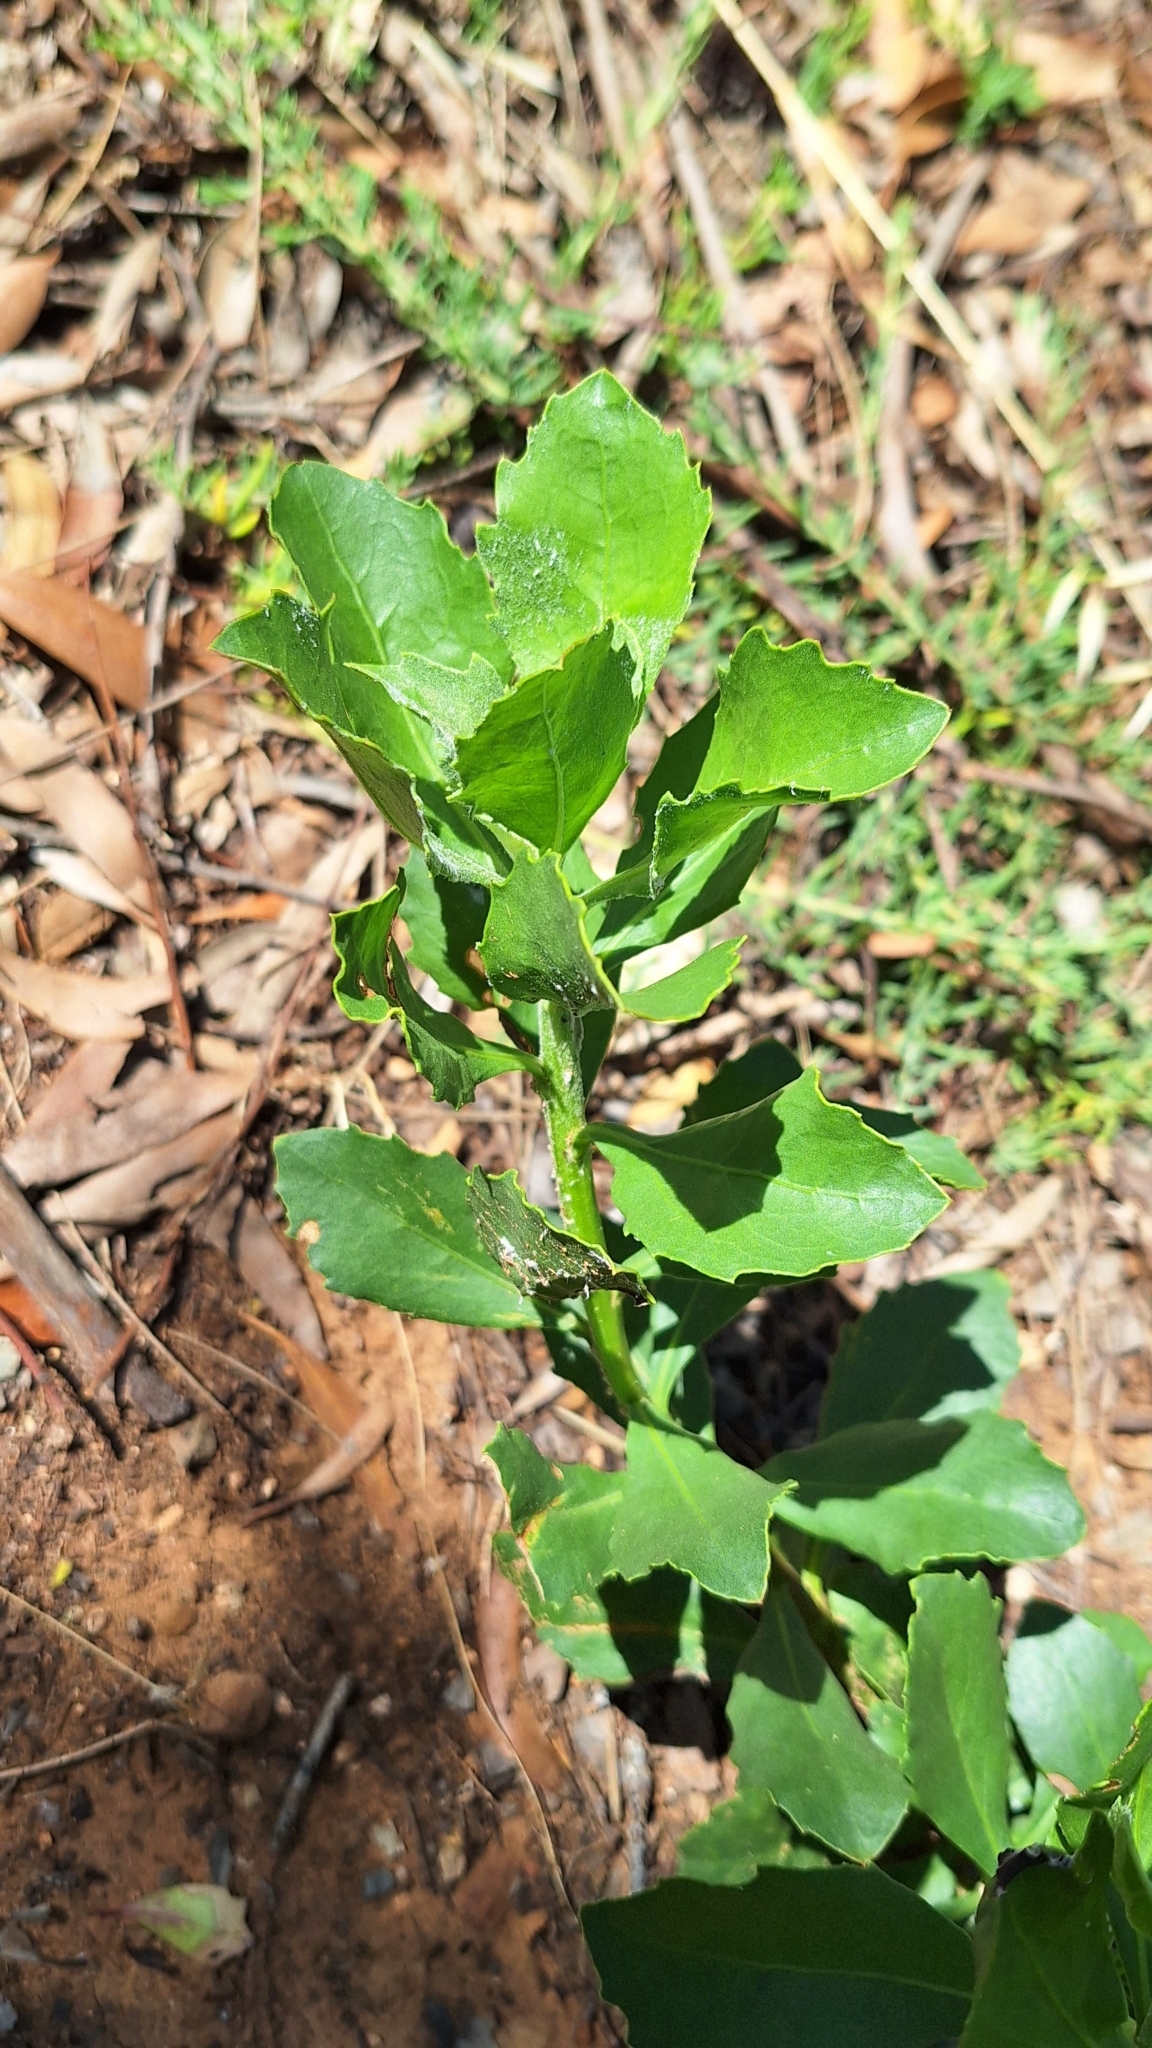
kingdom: Plantae
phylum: Tracheophyta
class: Magnoliopsida
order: Asterales
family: Asteraceae
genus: Osteospermum
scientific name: Osteospermum moniliferum
